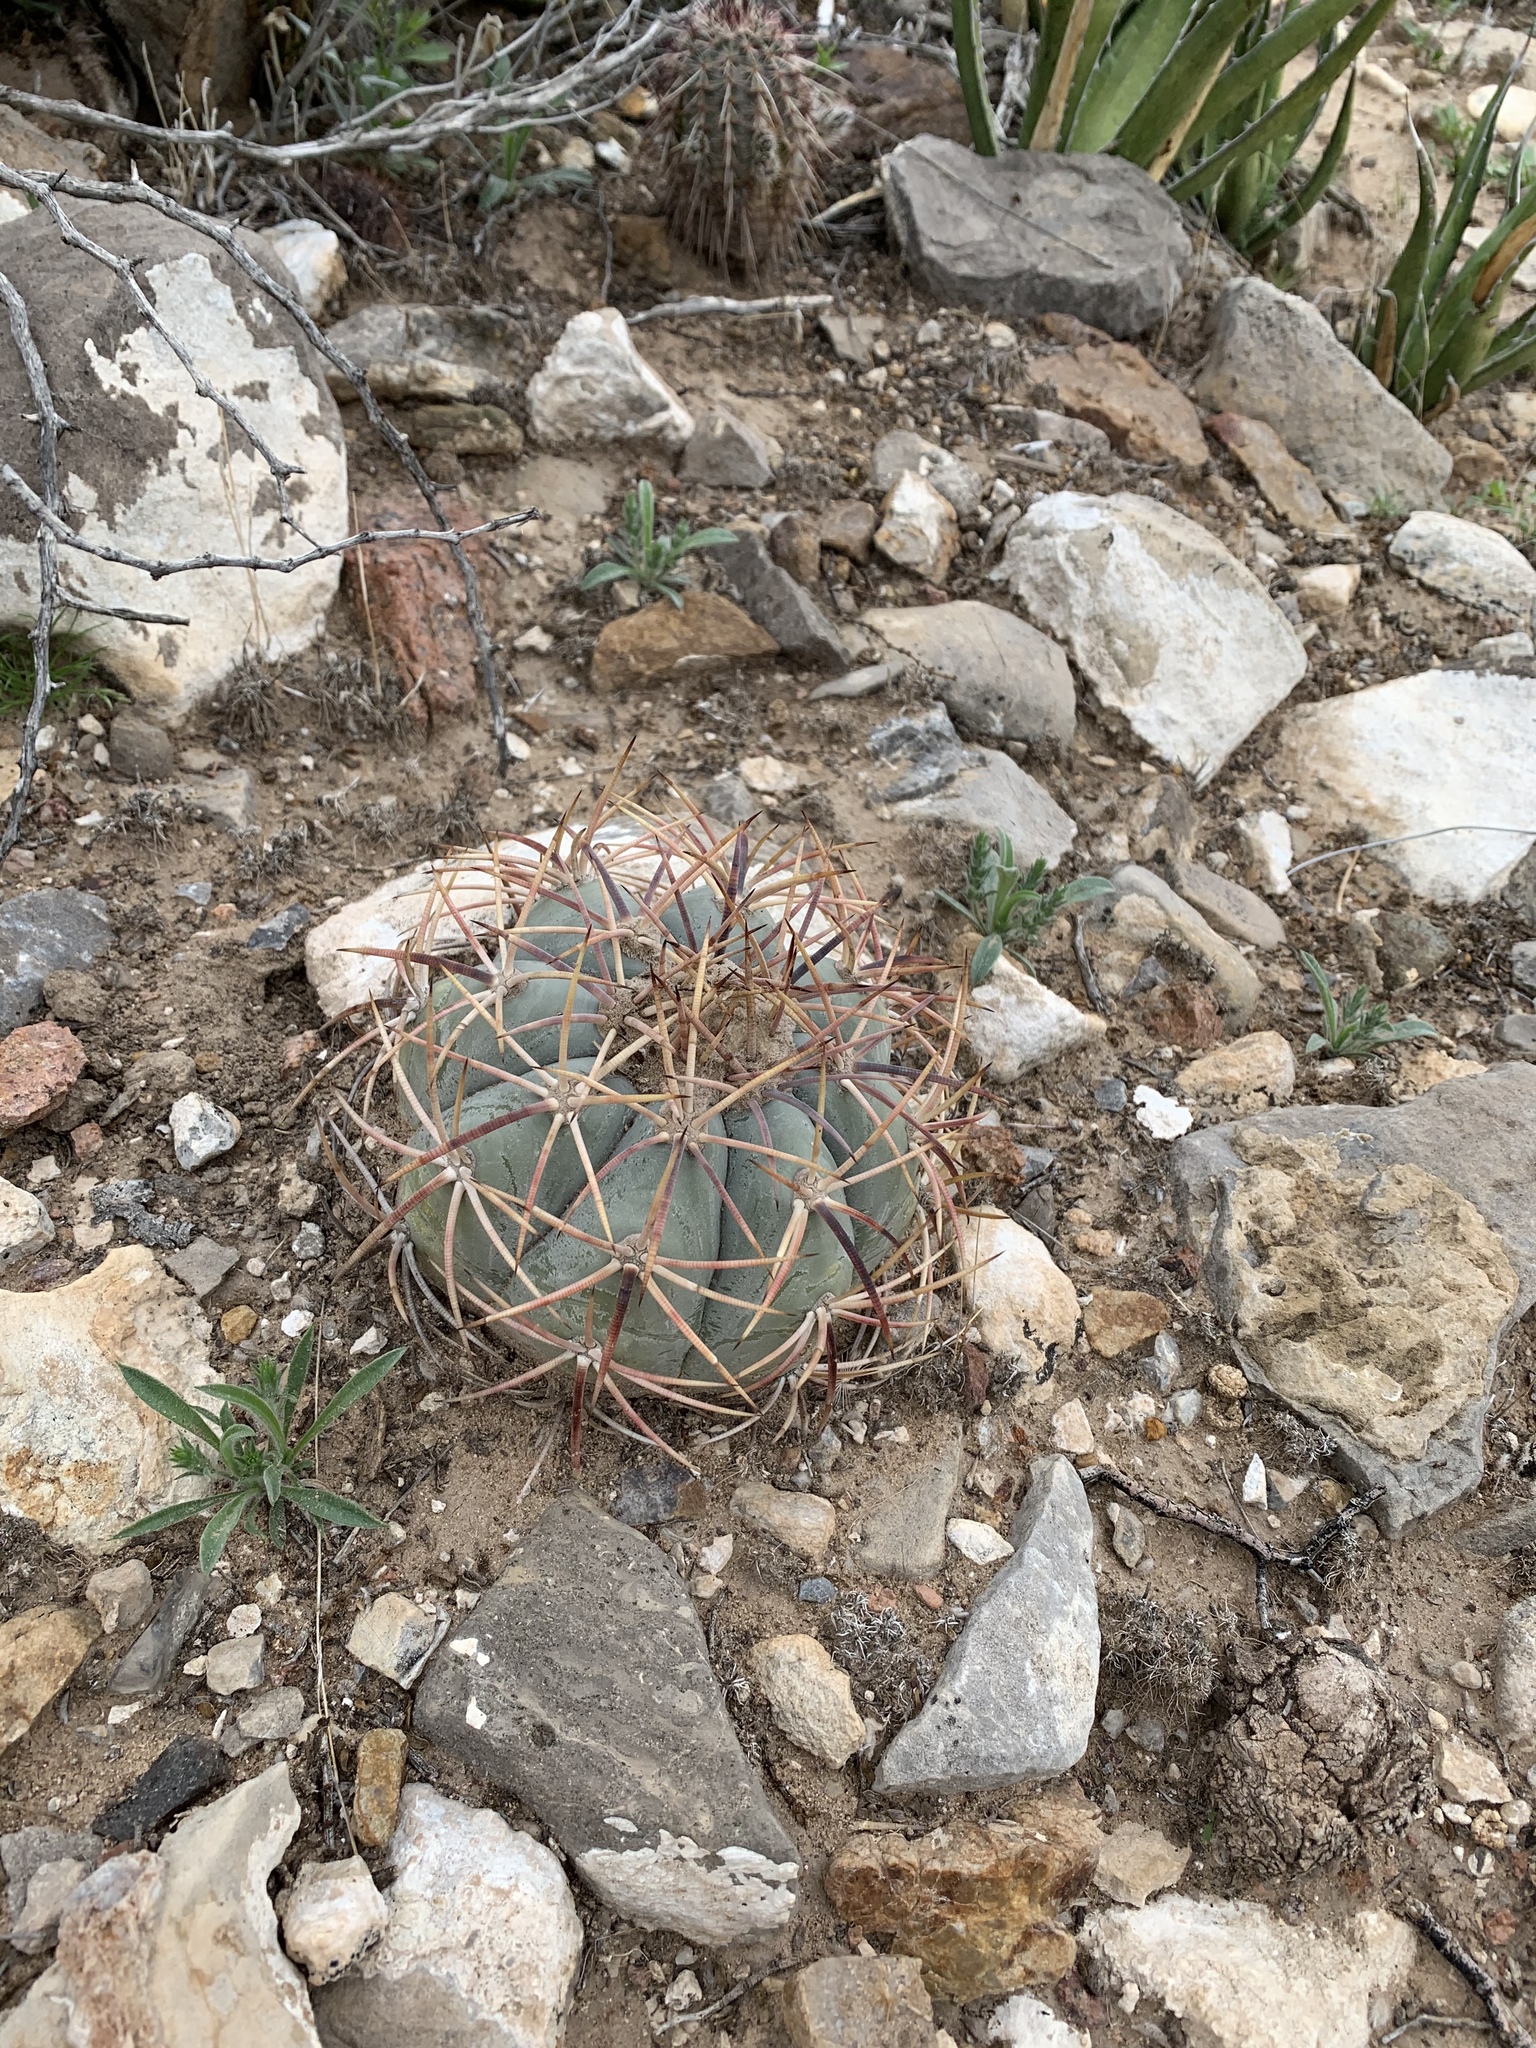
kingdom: Plantae
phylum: Tracheophyta
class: Magnoliopsida
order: Caryophyllales
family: Cactaceae
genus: Echinocactus
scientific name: Echinocactus horizonthalonius
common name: Devilshead
